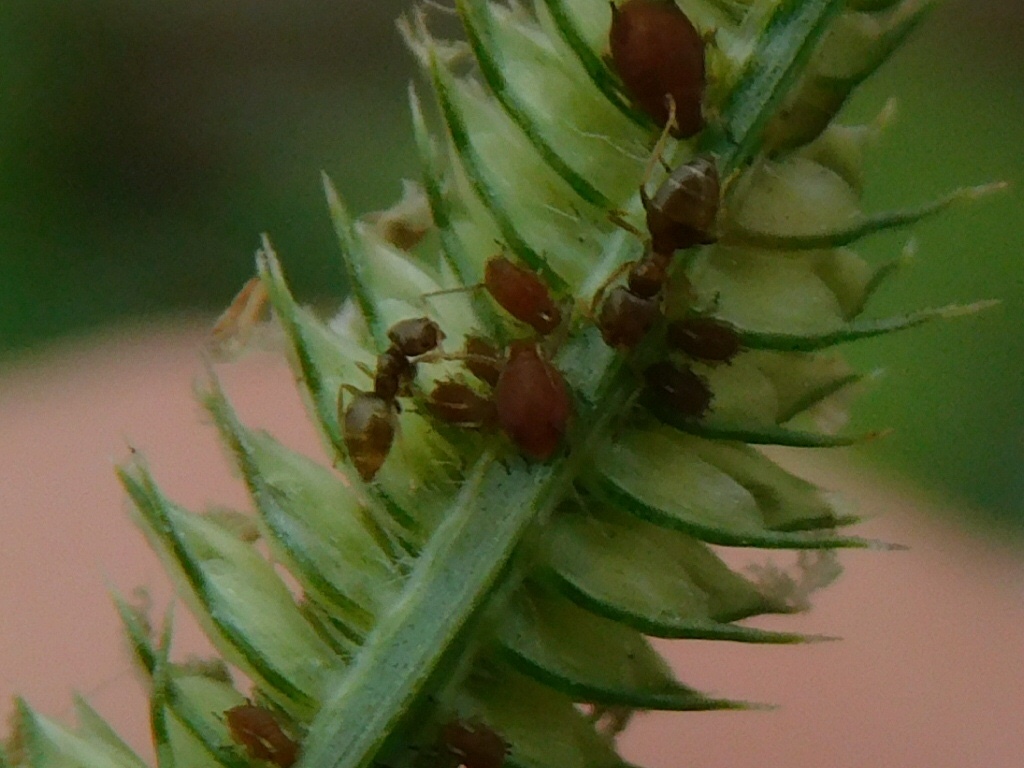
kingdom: Animalia
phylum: Arthropoda
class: Insecta
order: Hymenoptera
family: Formicidae
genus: Brachymyrmex
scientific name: Brachymyrmex obscurior
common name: Obscure rover ant
